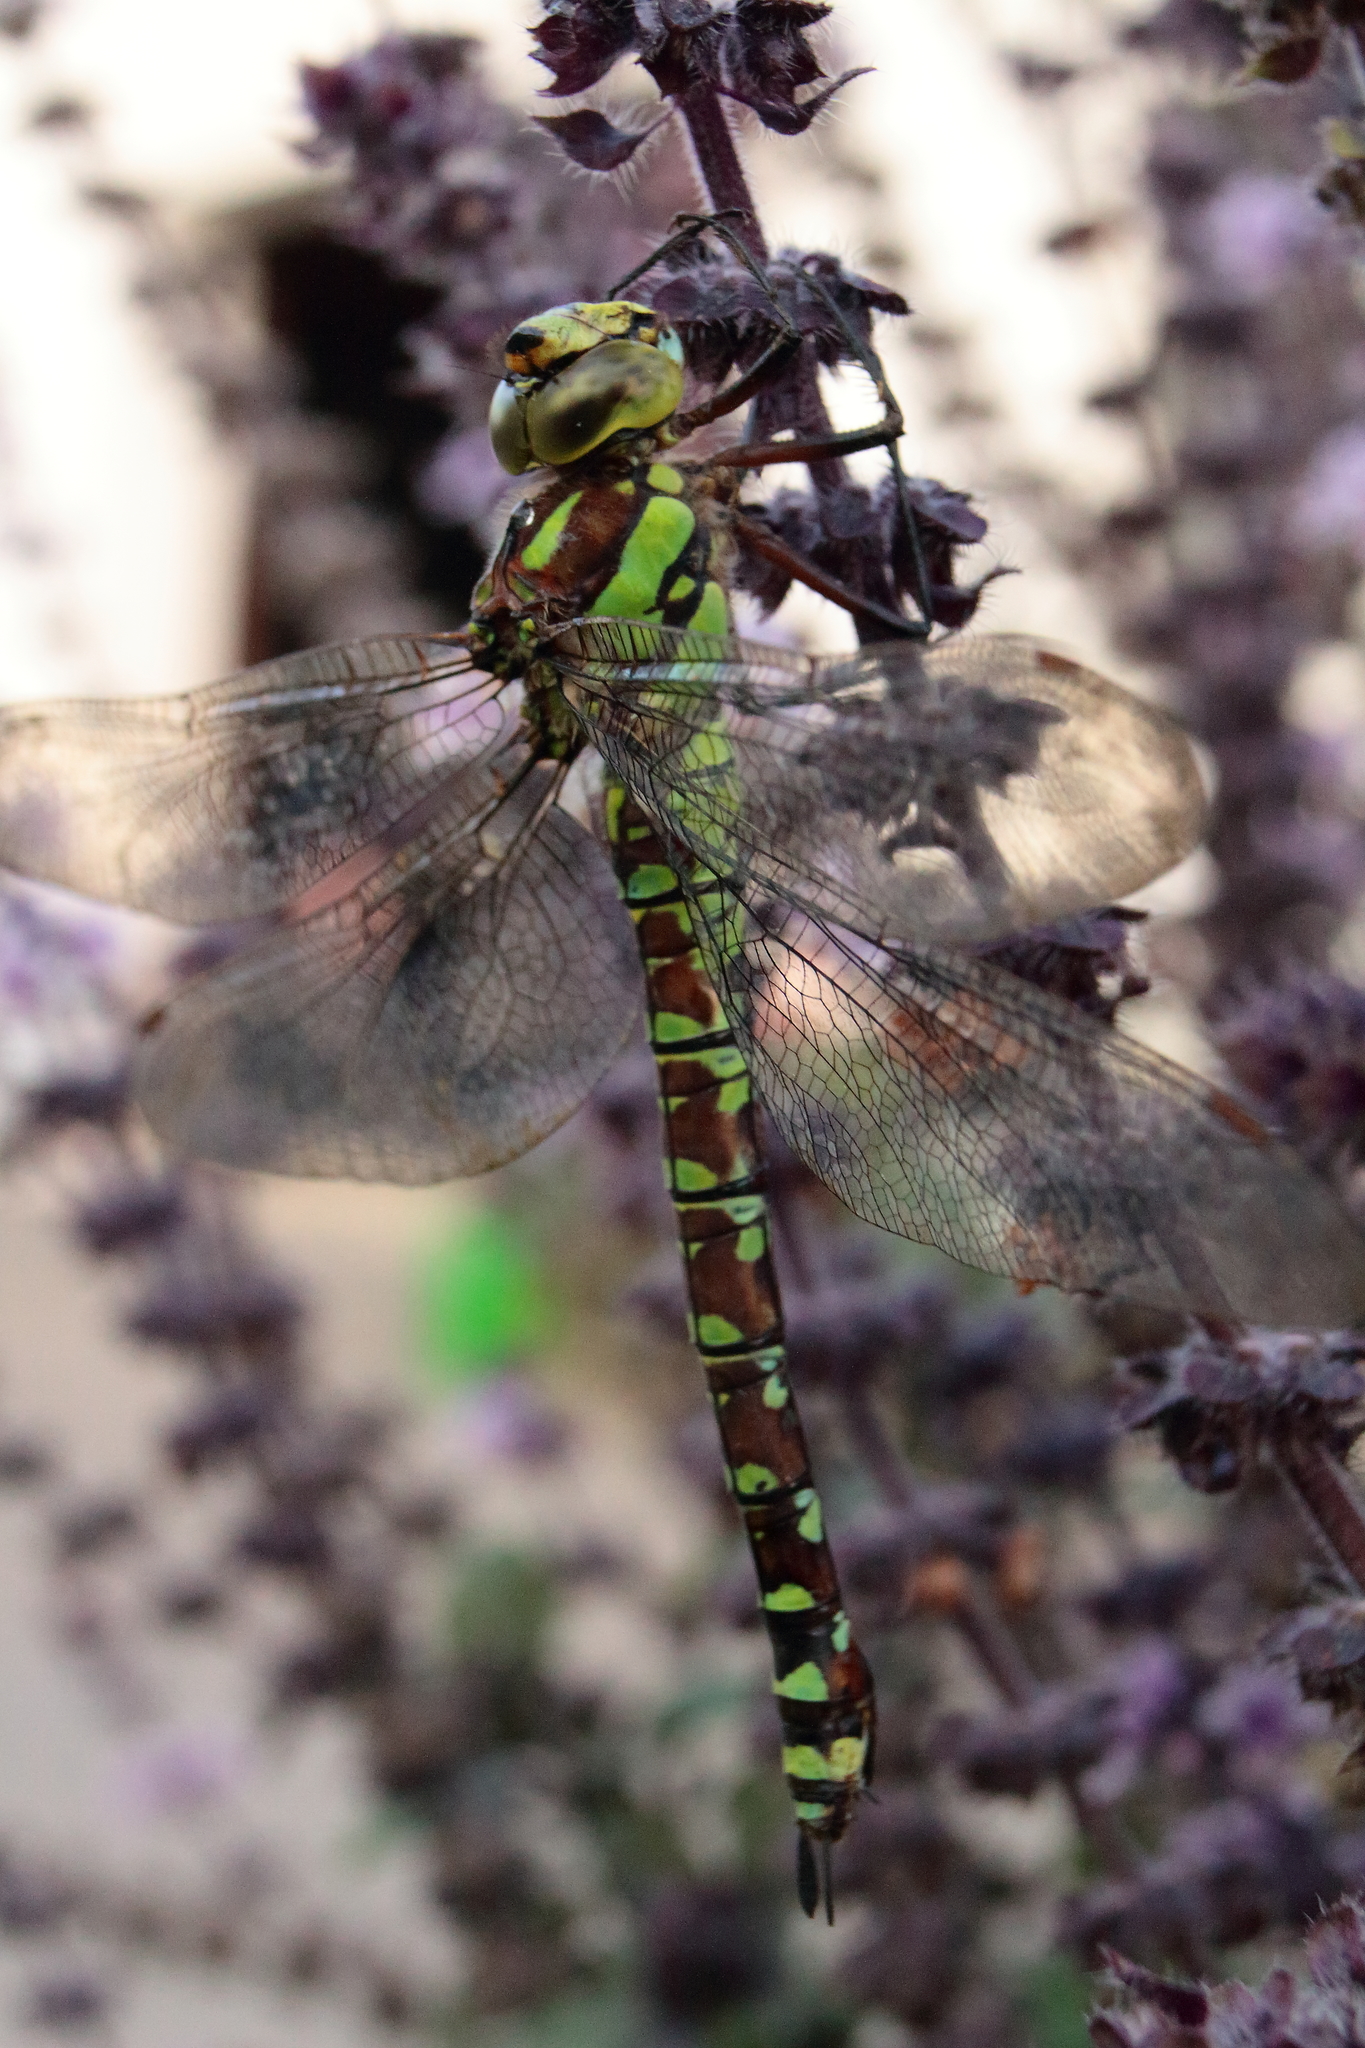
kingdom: Animalia
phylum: Arthropoda
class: Insecta
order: Odonata
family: Aeshnidae
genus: Aeshna
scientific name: Aeshna cyanea
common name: Southern hawker
